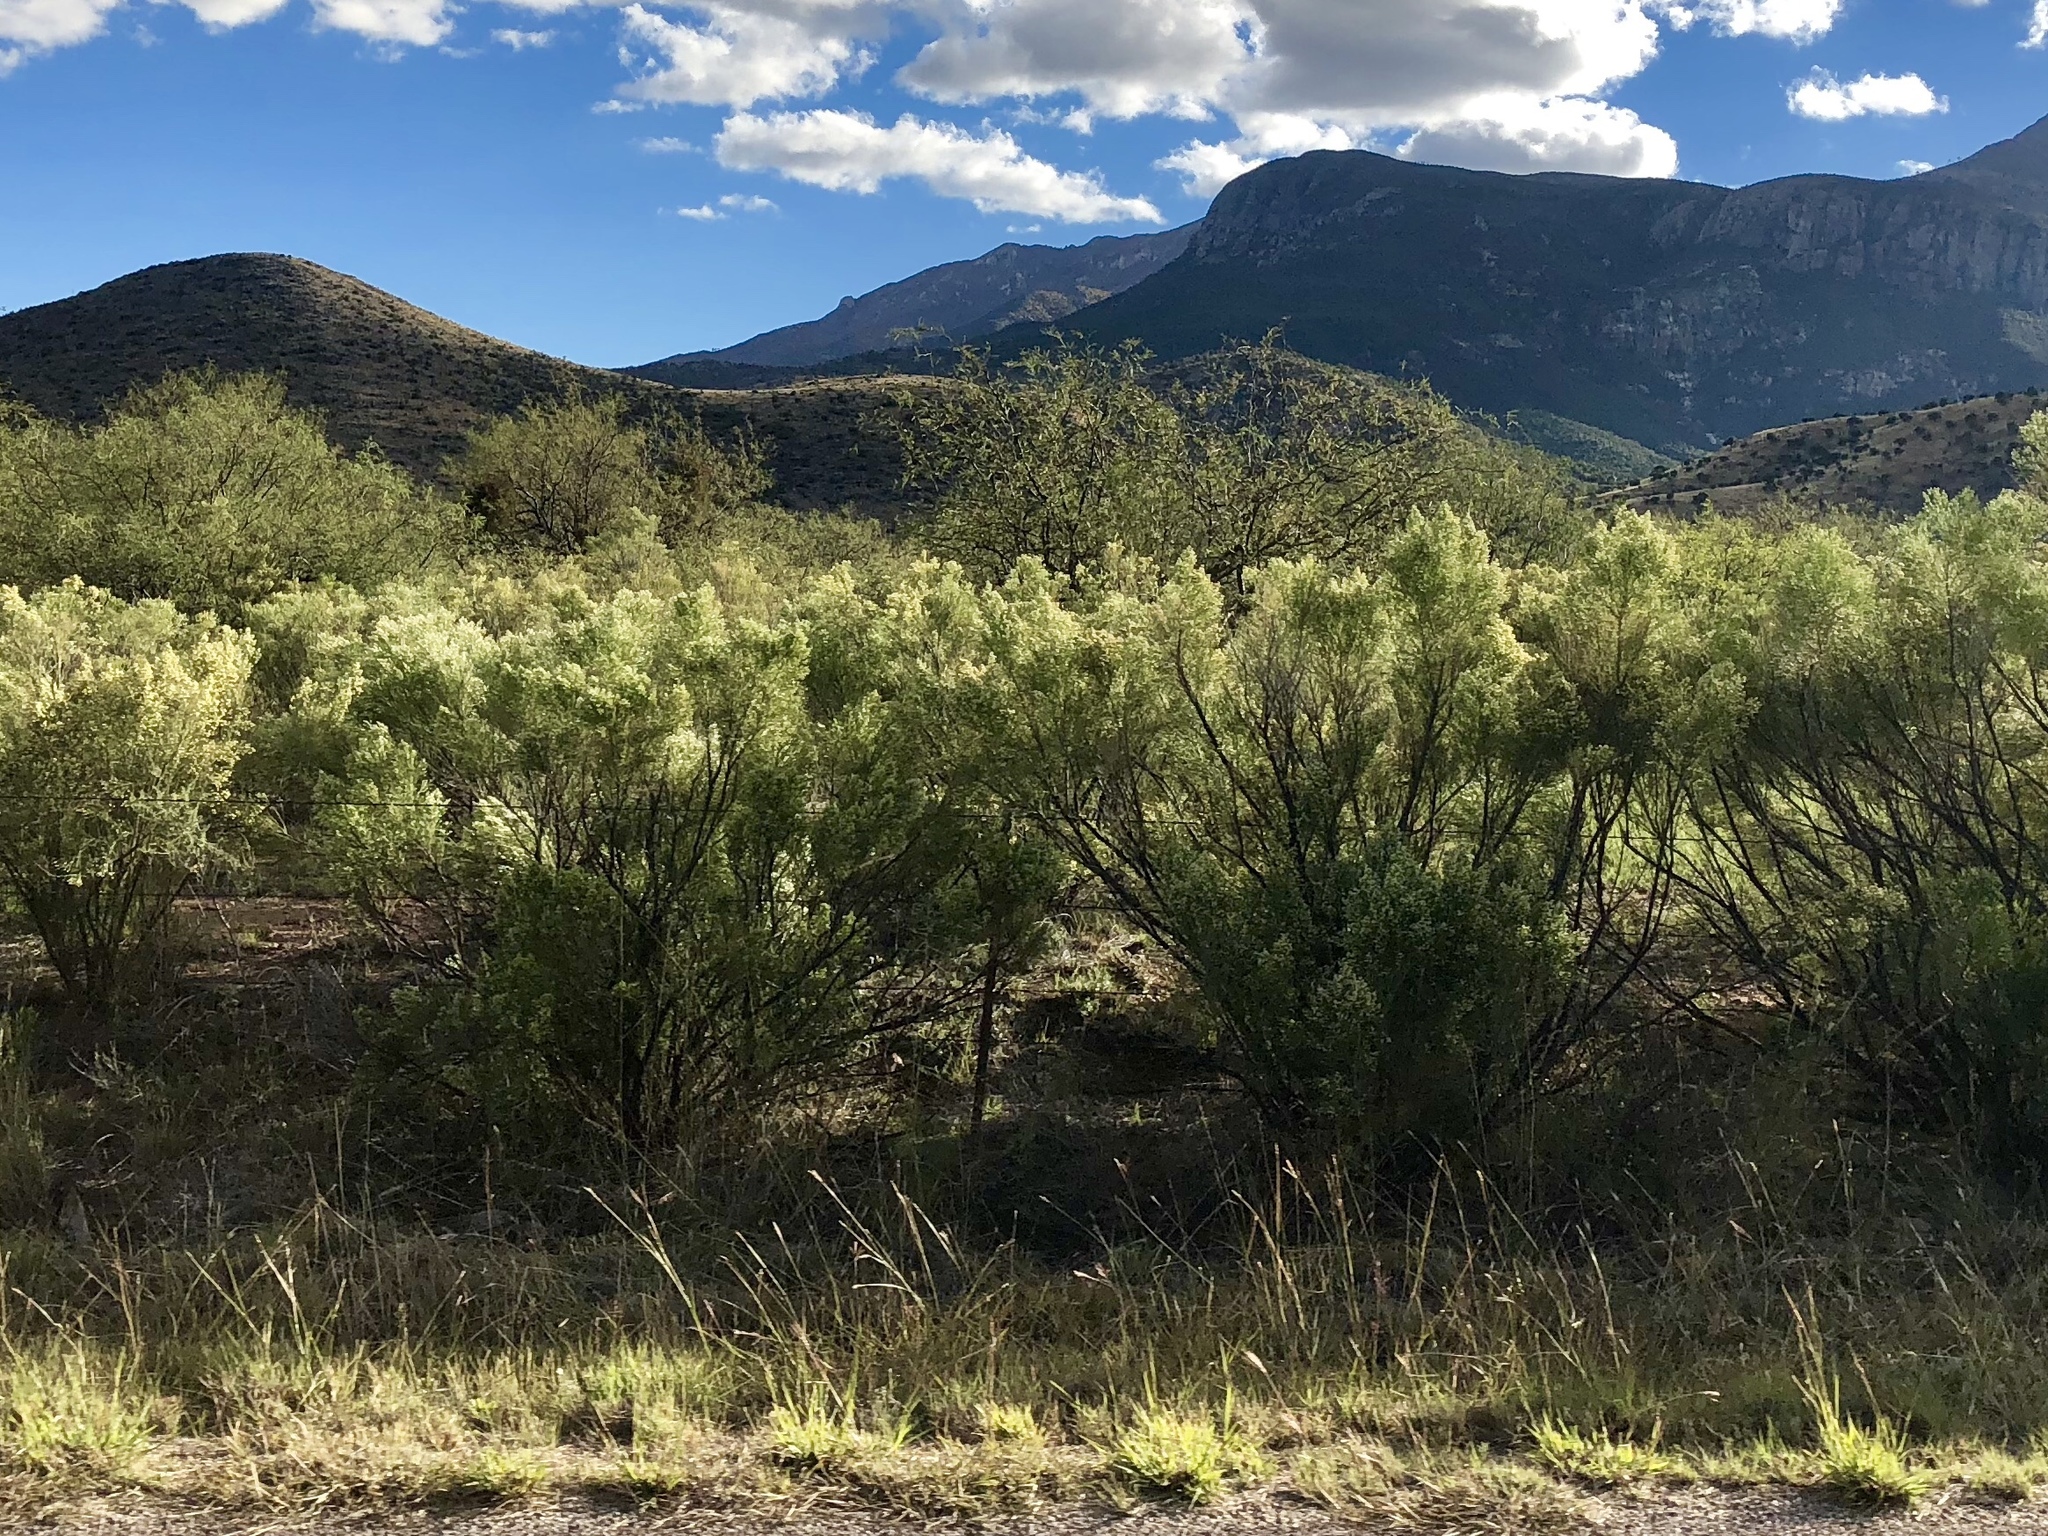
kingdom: Plantae
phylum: Tracheophyta
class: Magnoliopsida
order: Asterales
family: Asteraceae
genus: Baccharis
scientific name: Baccharis sarothroides
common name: Desert-broom
